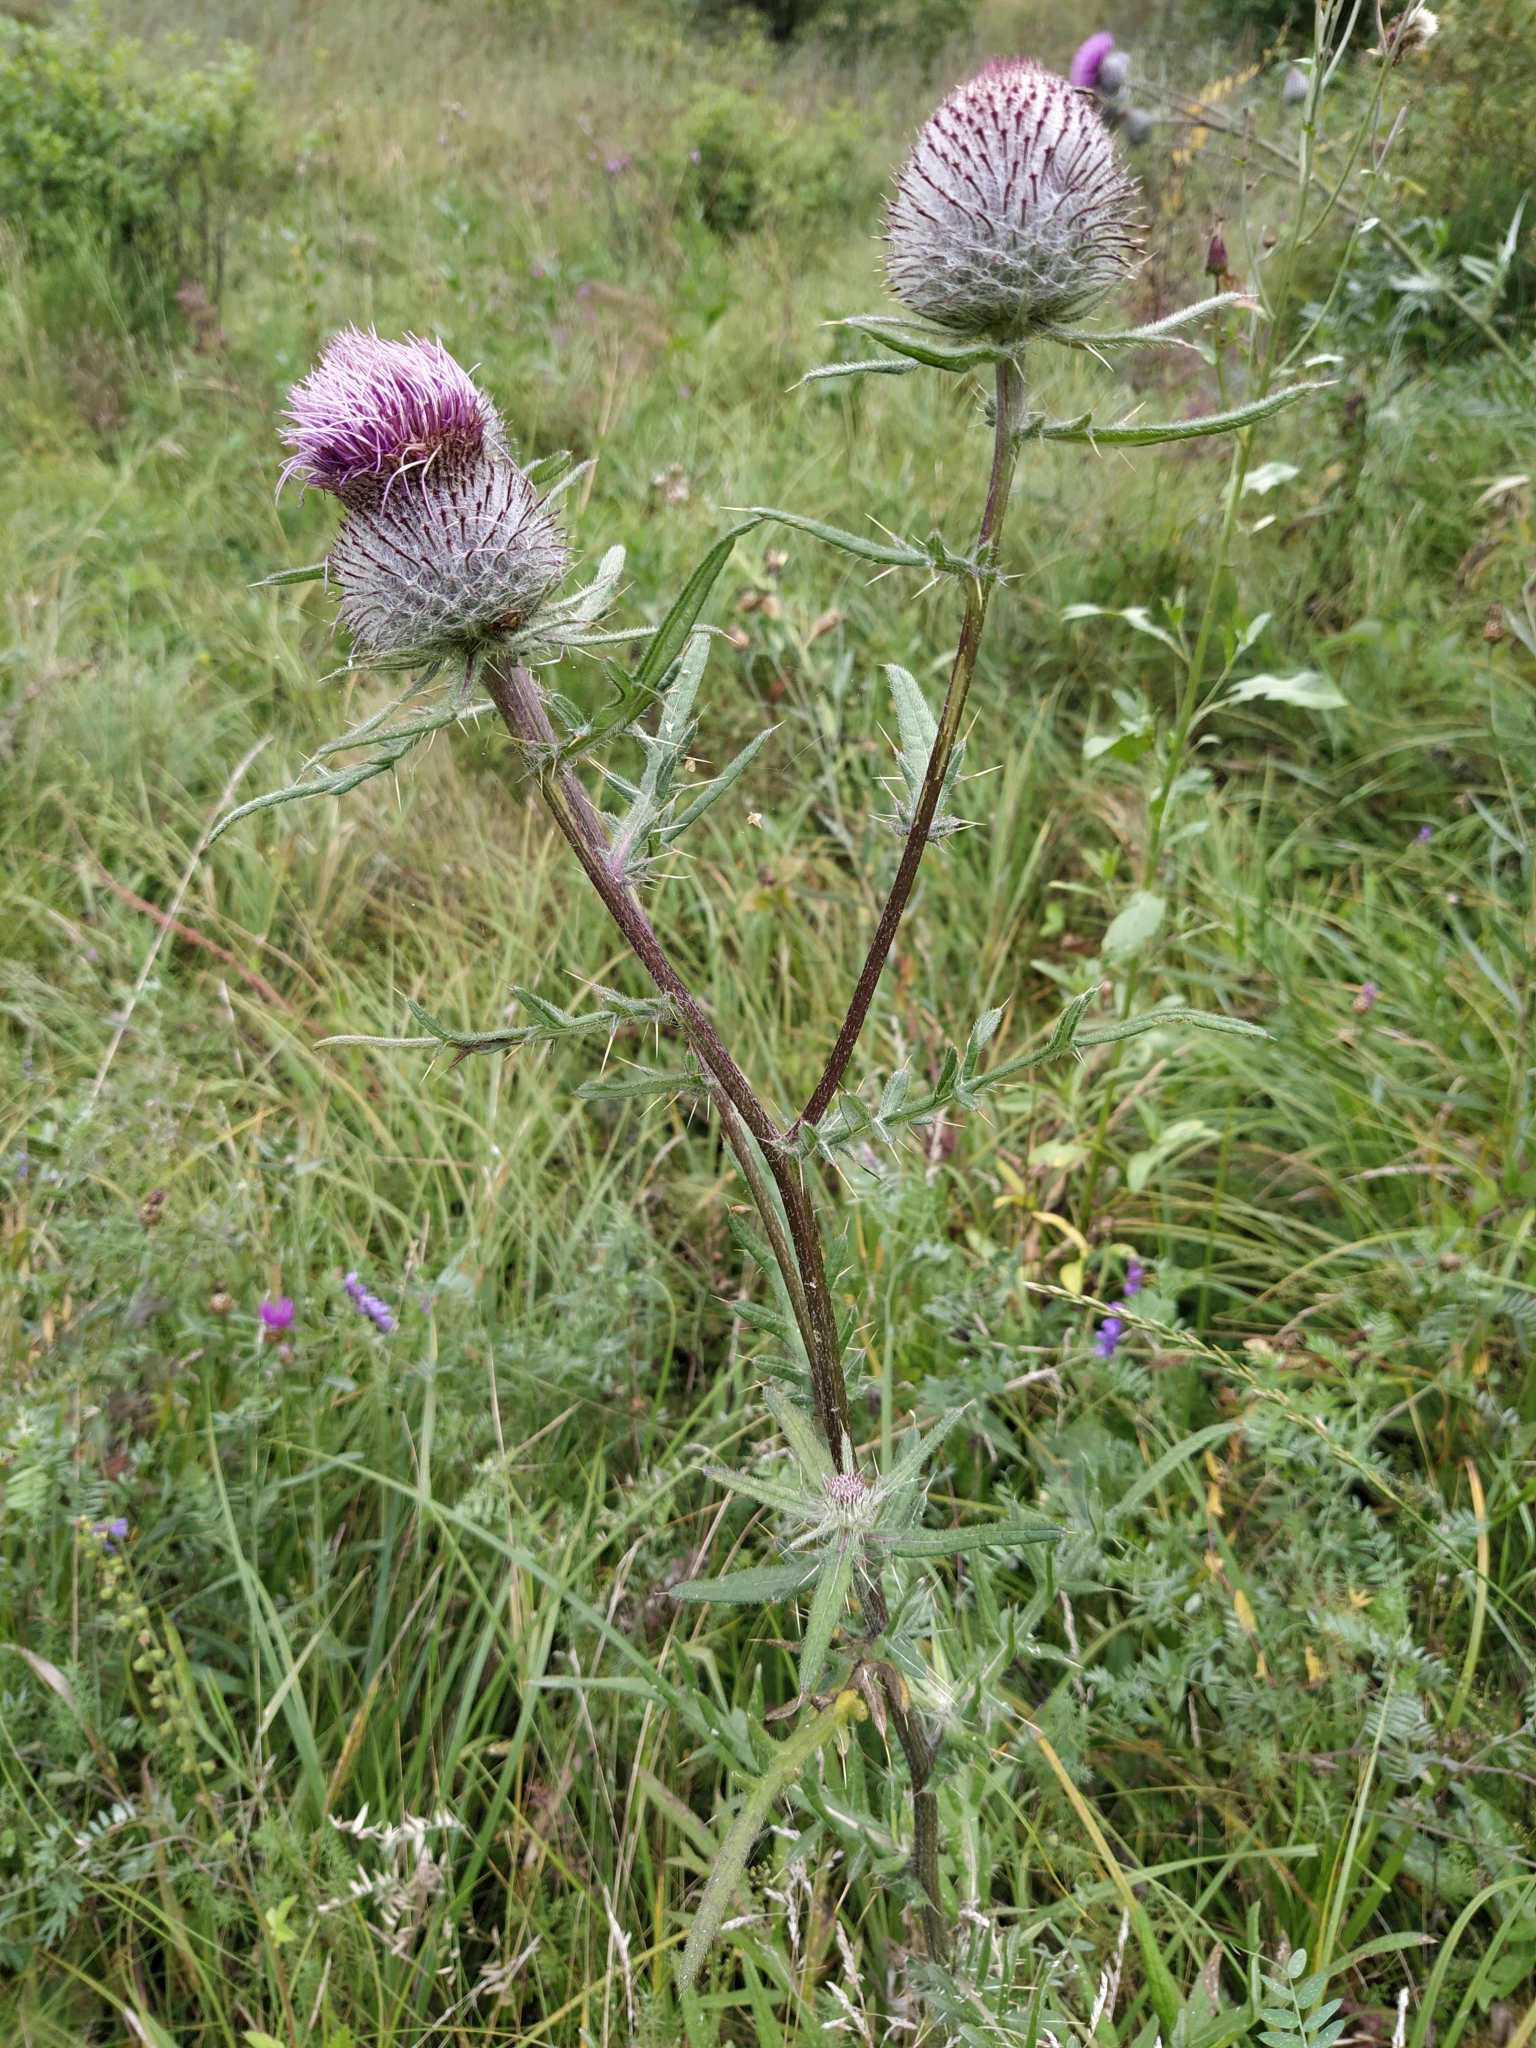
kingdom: Plantae
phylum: Tracheophyta
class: Magnoliopsida
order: Asterales
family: Asteraceae
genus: Lophiolepis
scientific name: Lophiolepis decussata
